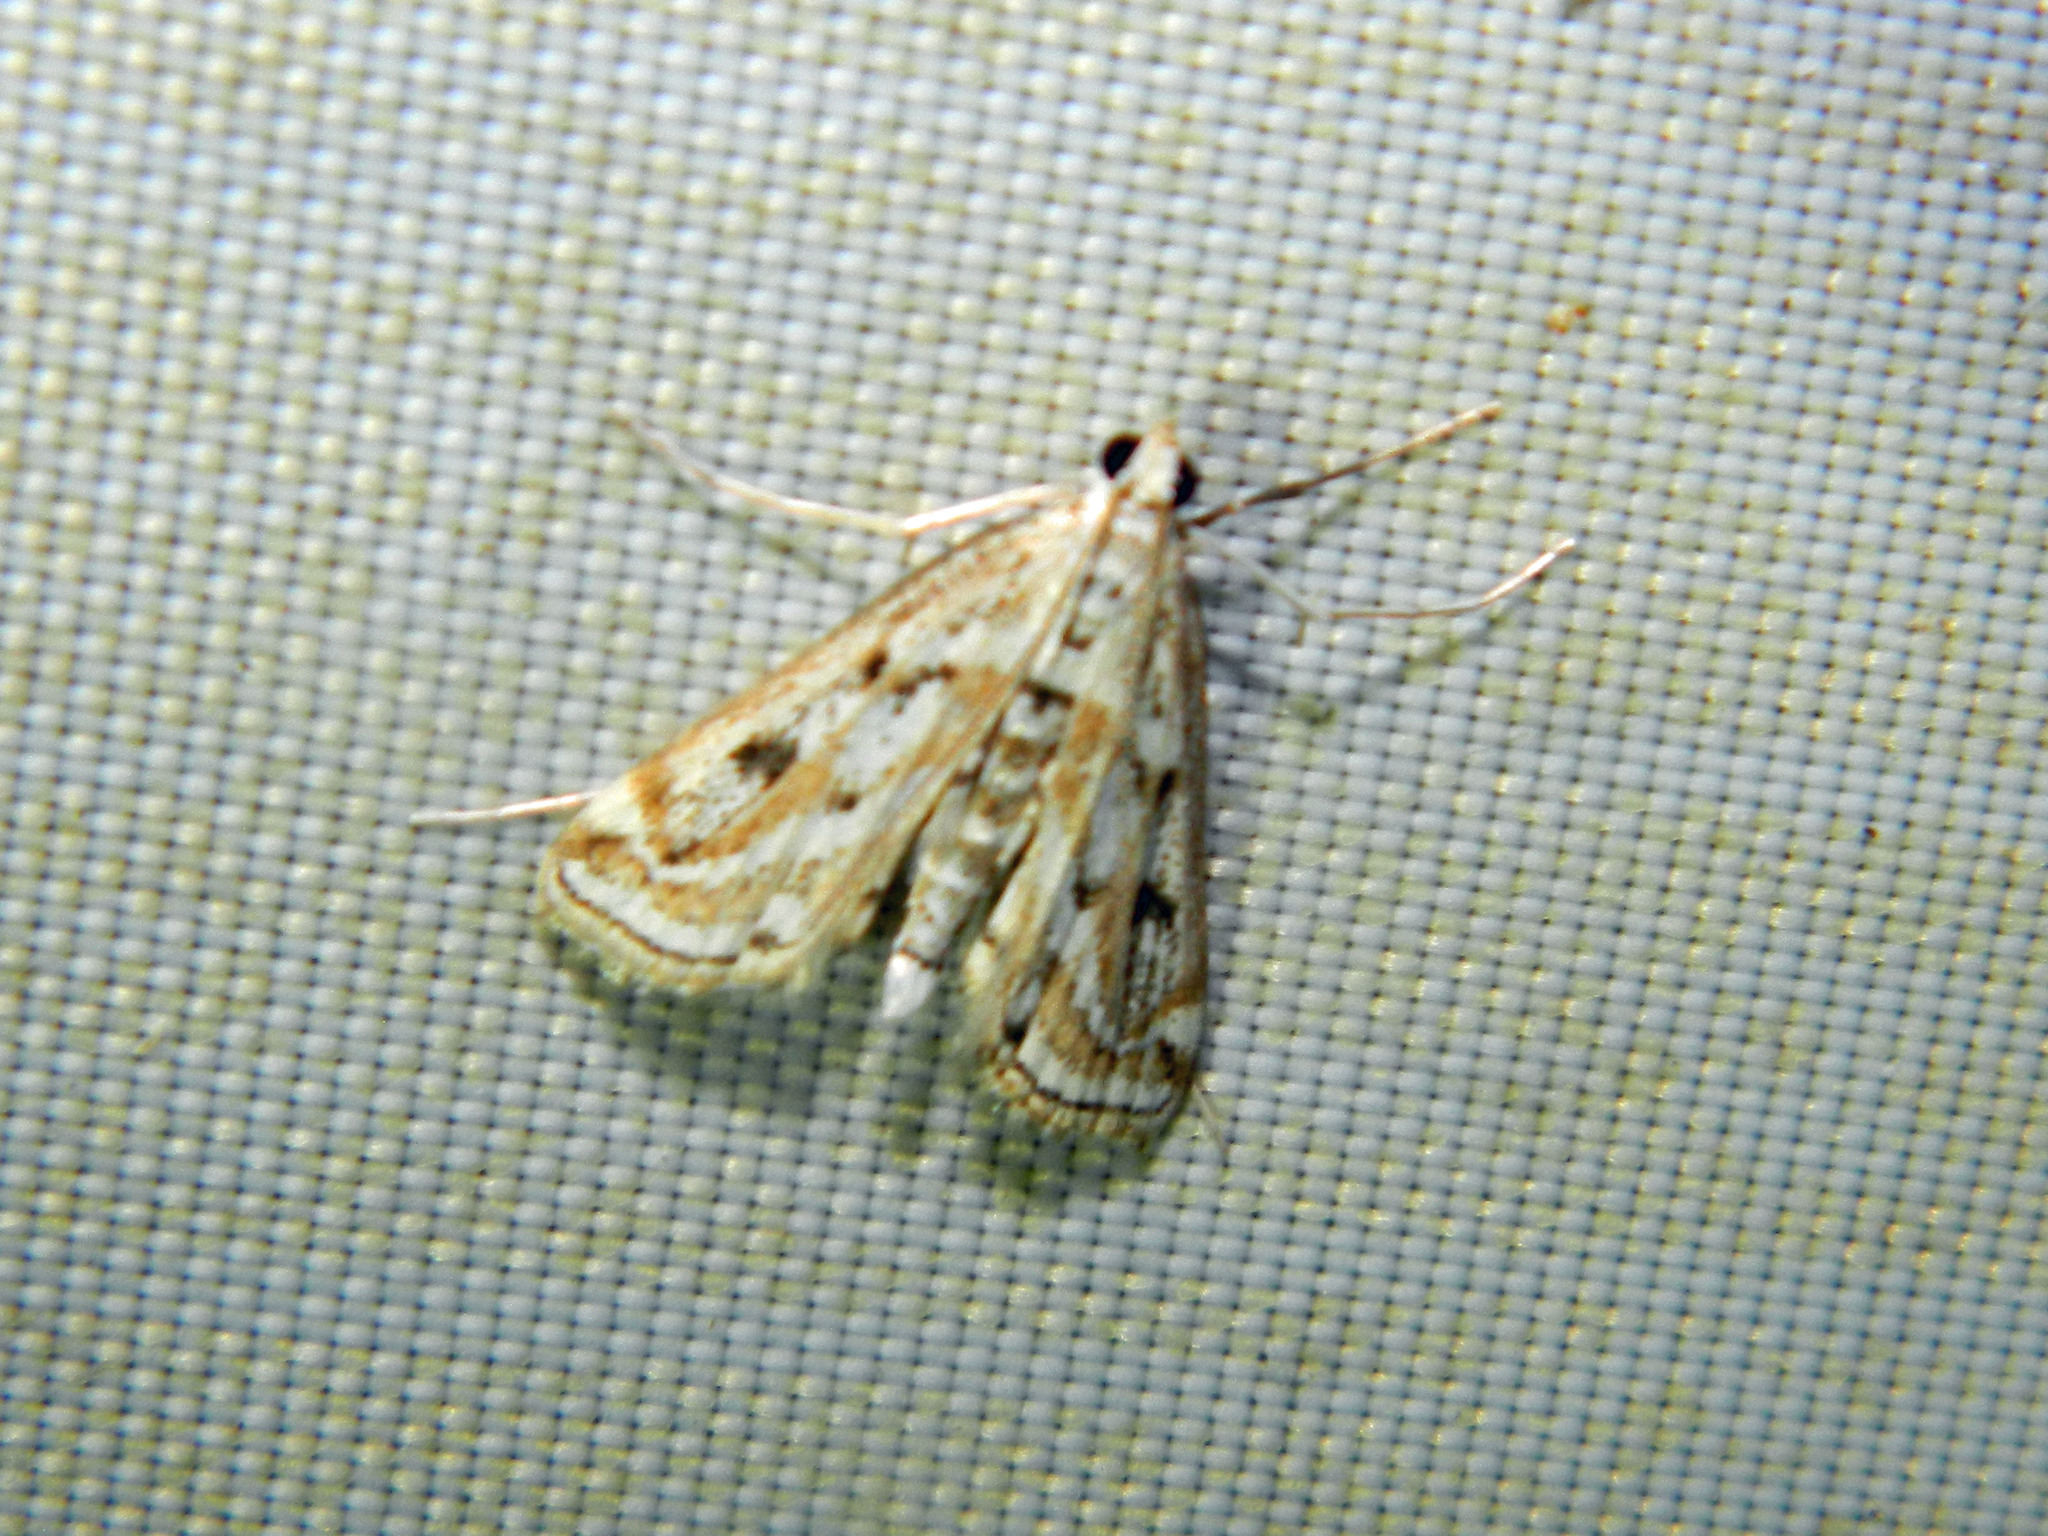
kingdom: Animalia
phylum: Arthropoda
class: Insecta
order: Lepidoptera
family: Crambidae
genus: Parapoynx
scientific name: Parapoynx allionealis
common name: Bladderwort casemaker
